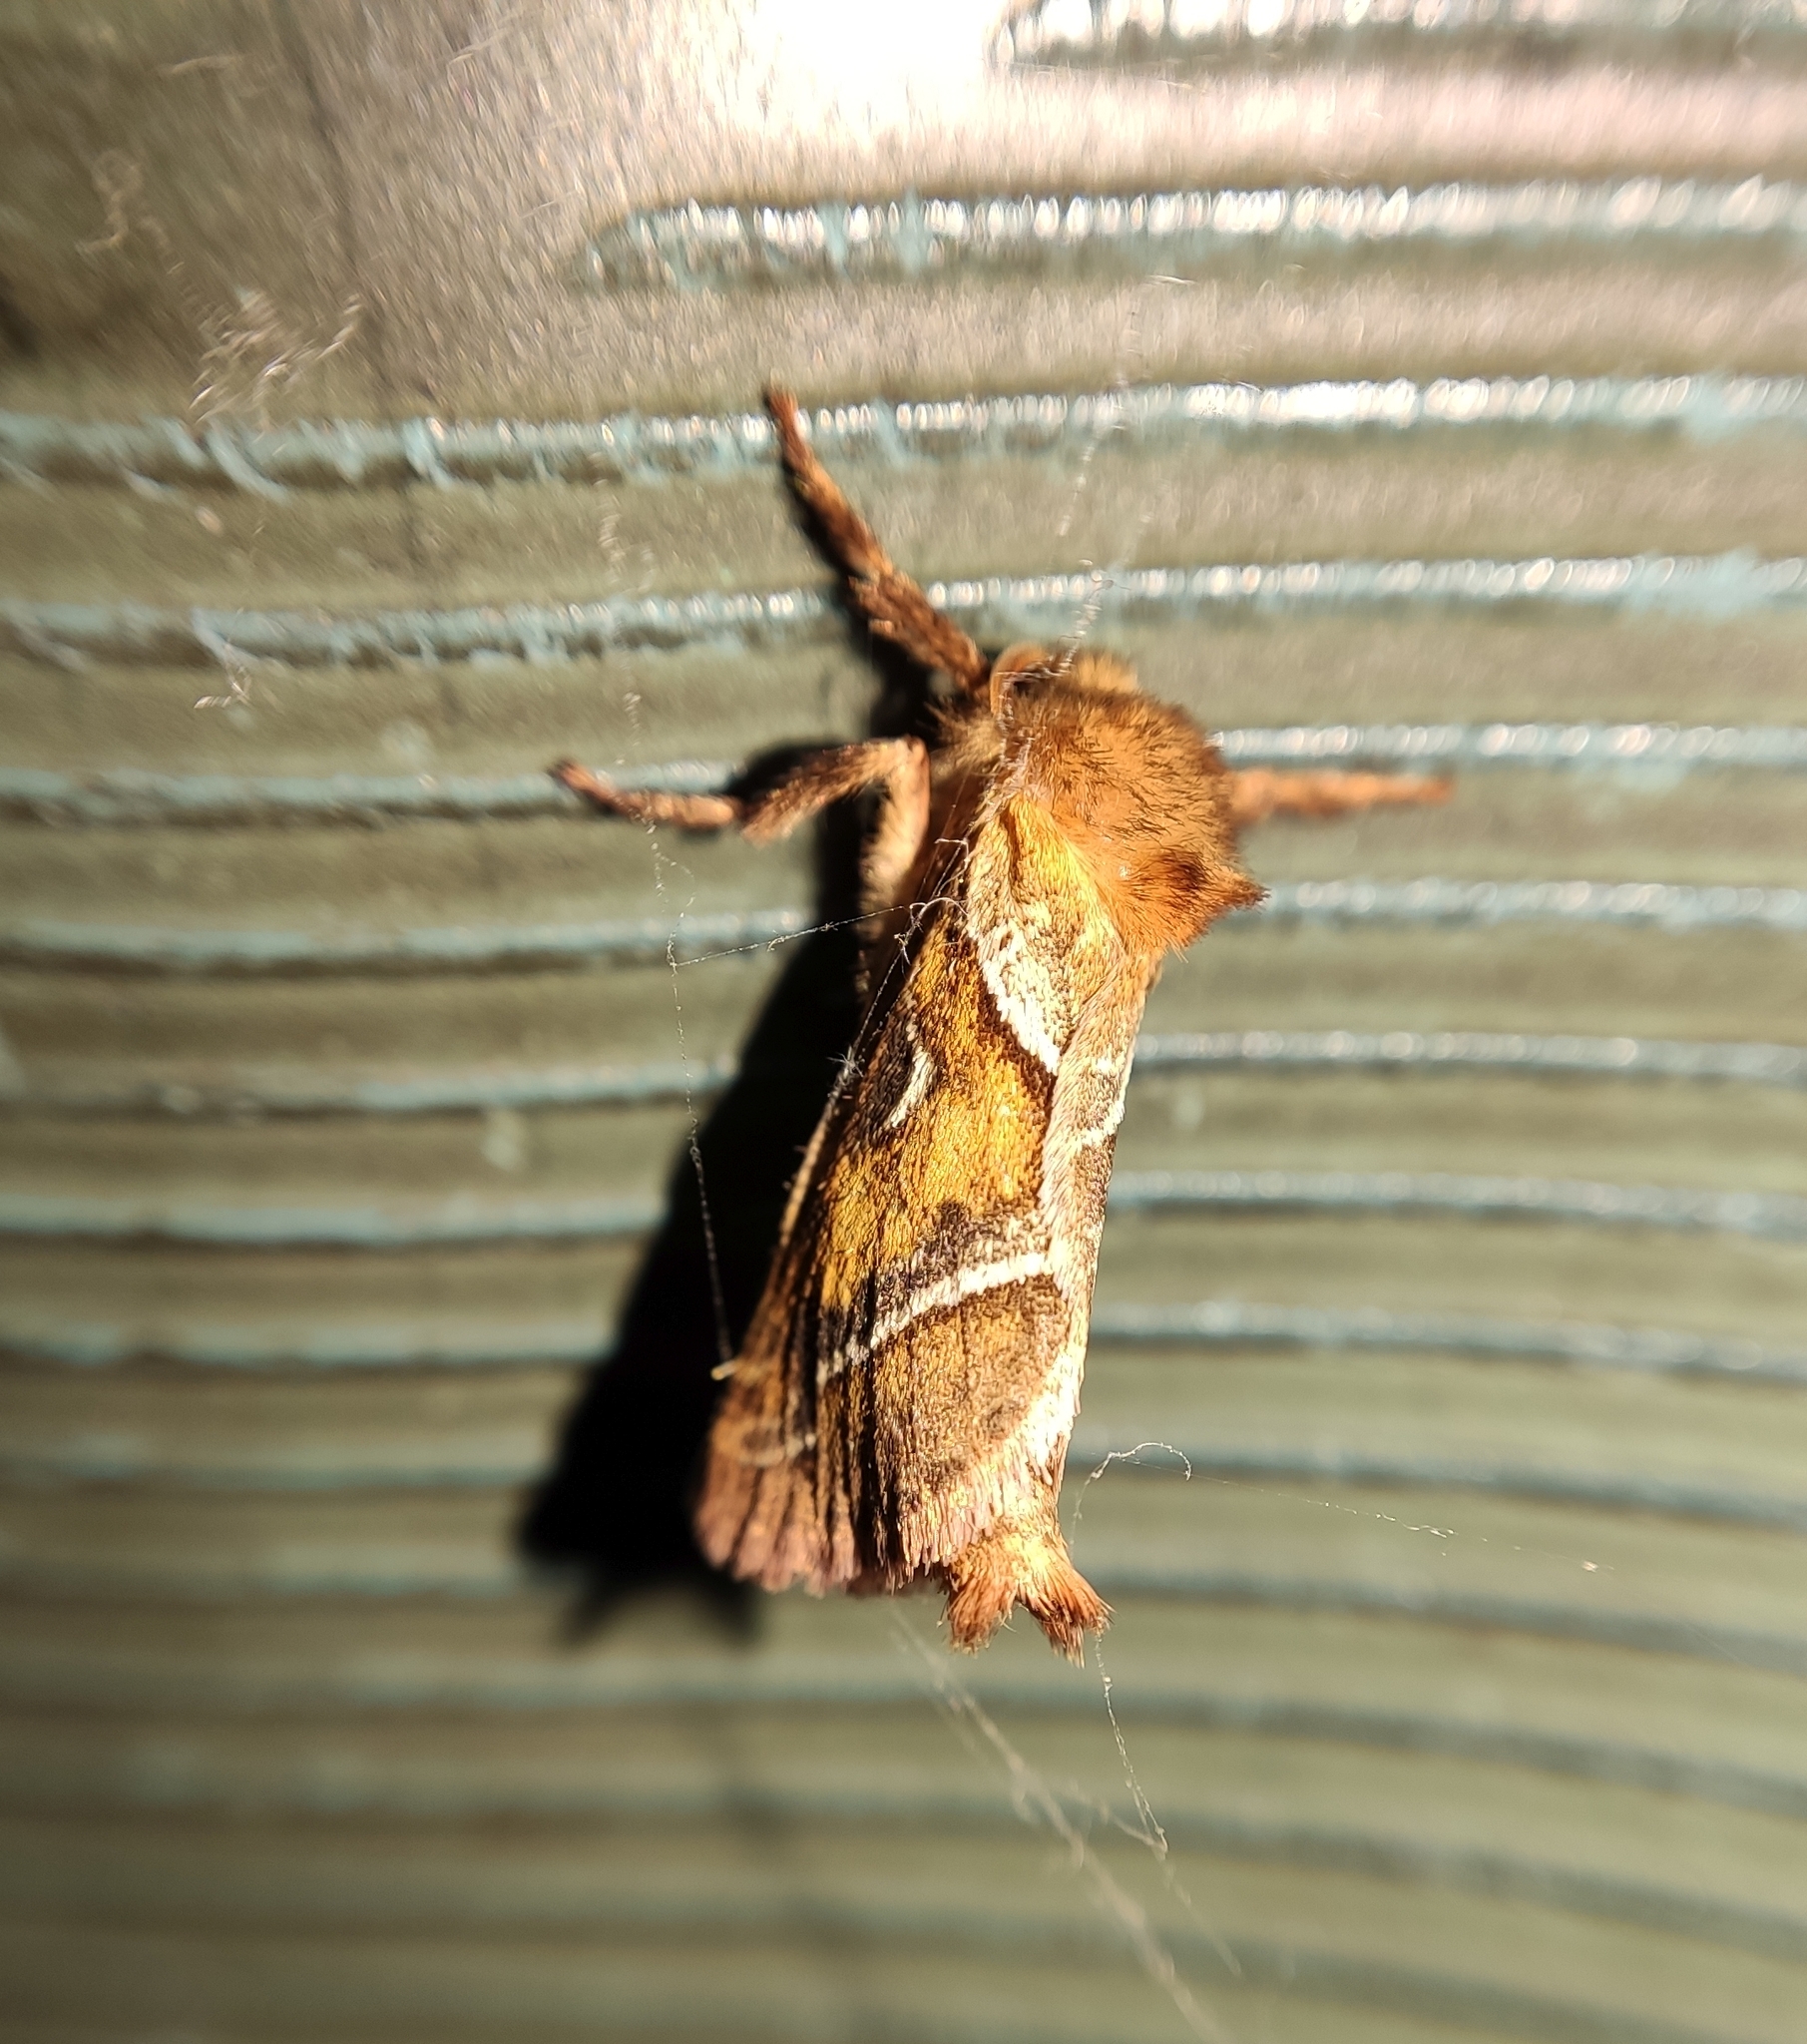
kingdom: Animalia
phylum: Arthropoda
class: Insecta
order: Lepidoptera
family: Hepialidae
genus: Triodia
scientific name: Triodia sylvina
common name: Orange swift
